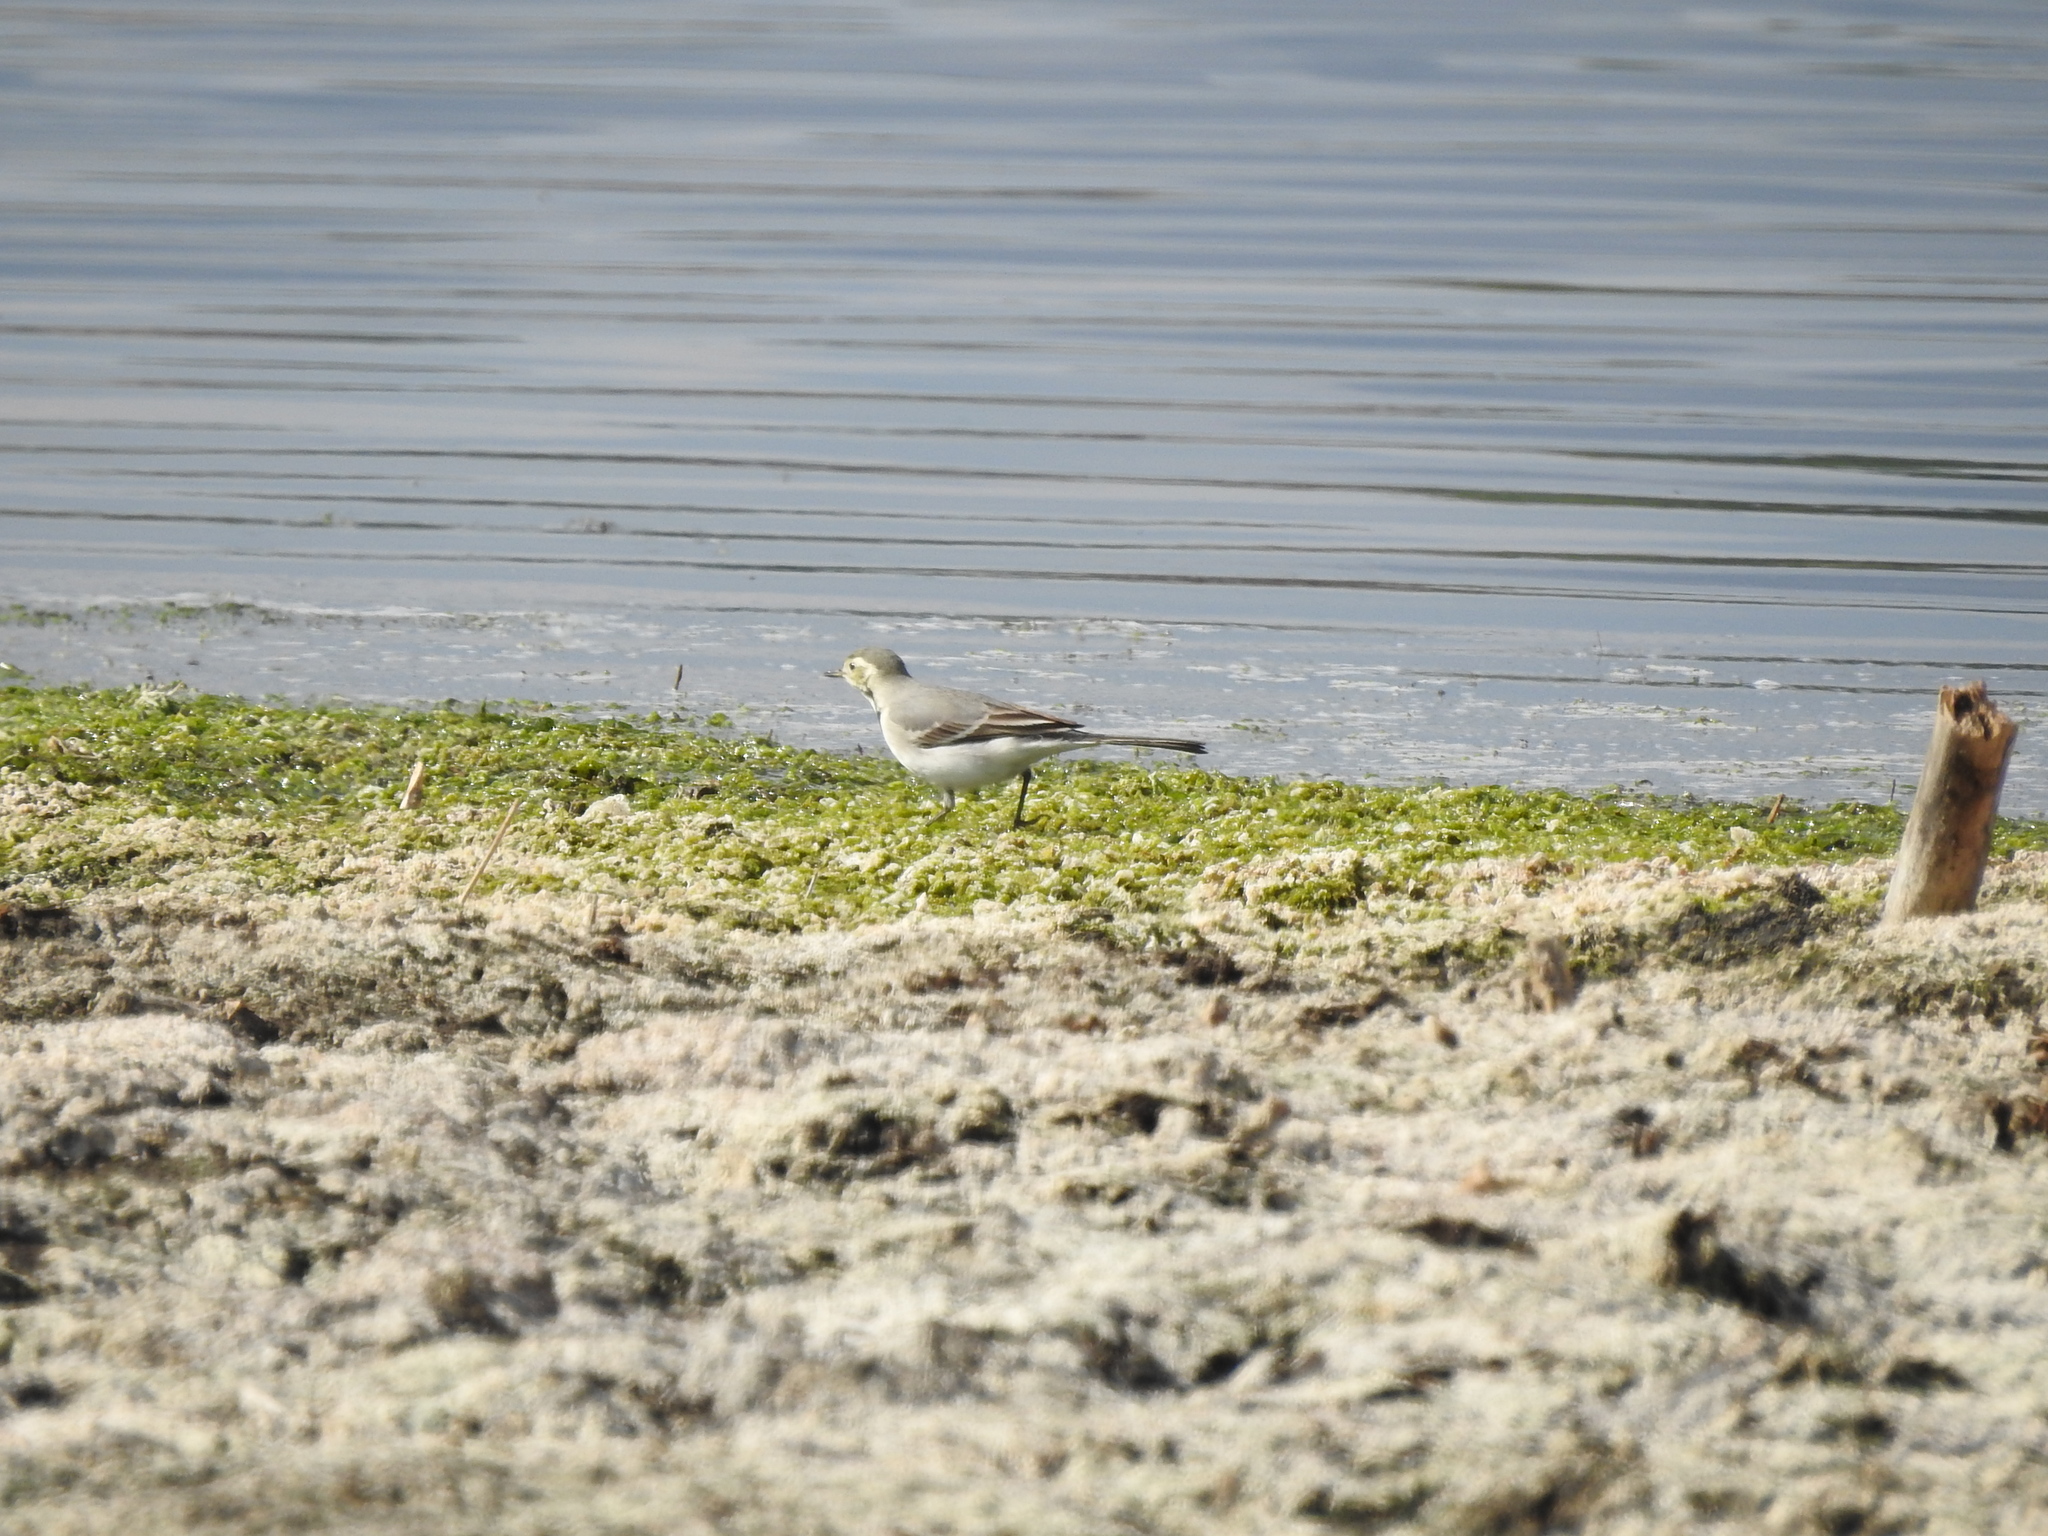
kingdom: Animalia
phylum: Chordata
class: Aves
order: Passeriformes
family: Motacillidae
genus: Motacilla
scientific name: Motacilla alba
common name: White wagtail
